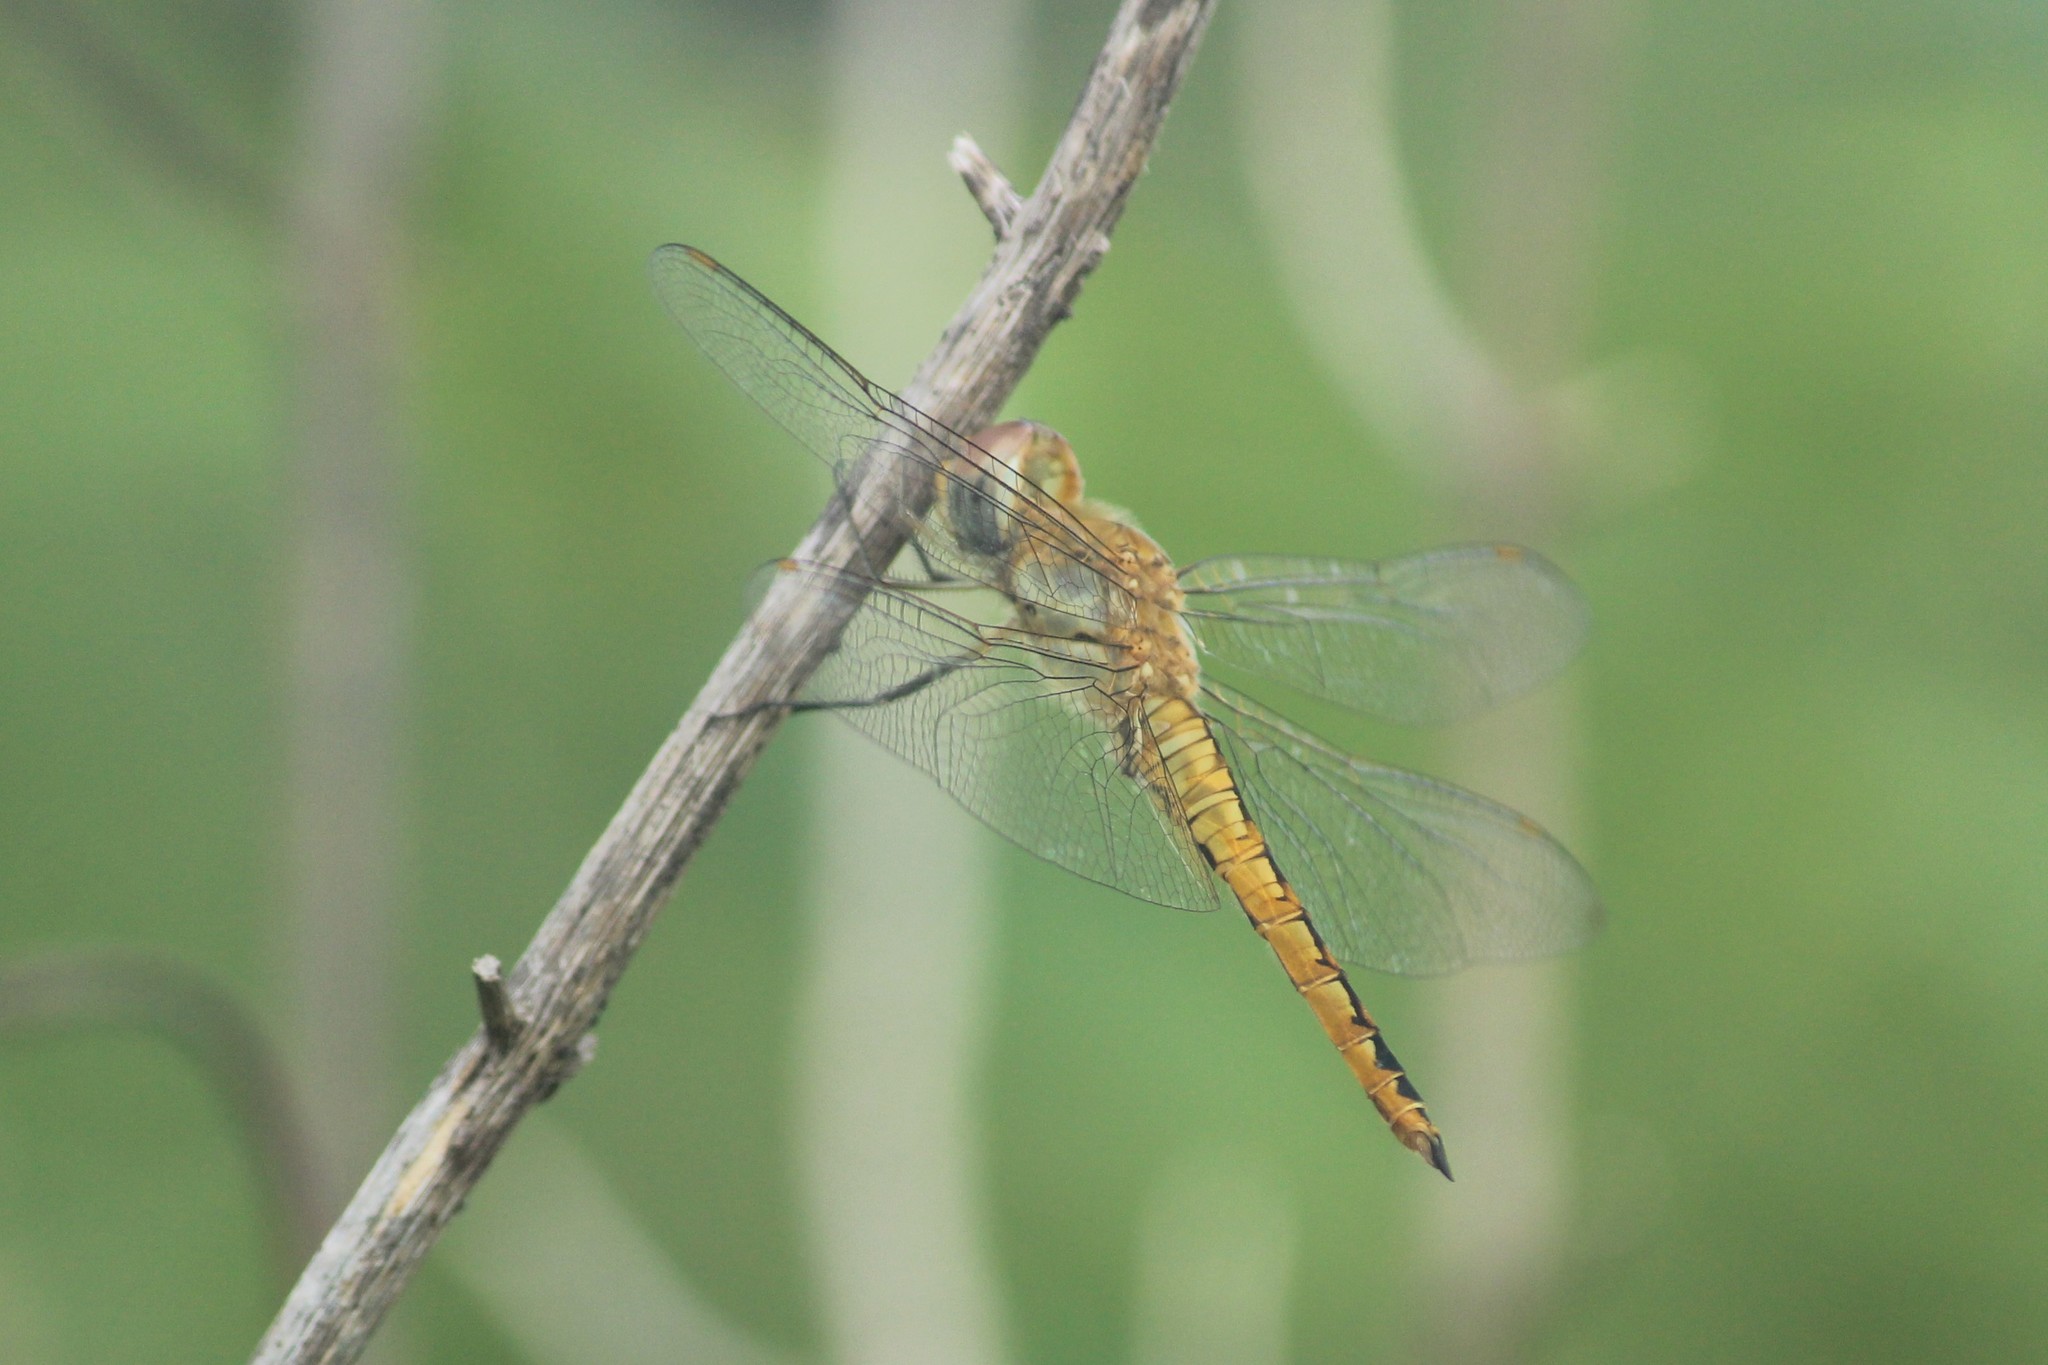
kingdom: Animalia
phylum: Arthropoda
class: Insecta
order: Odonata
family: Libellulidae
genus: Pantala
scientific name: Pantala flavescens
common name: Wandering glider
